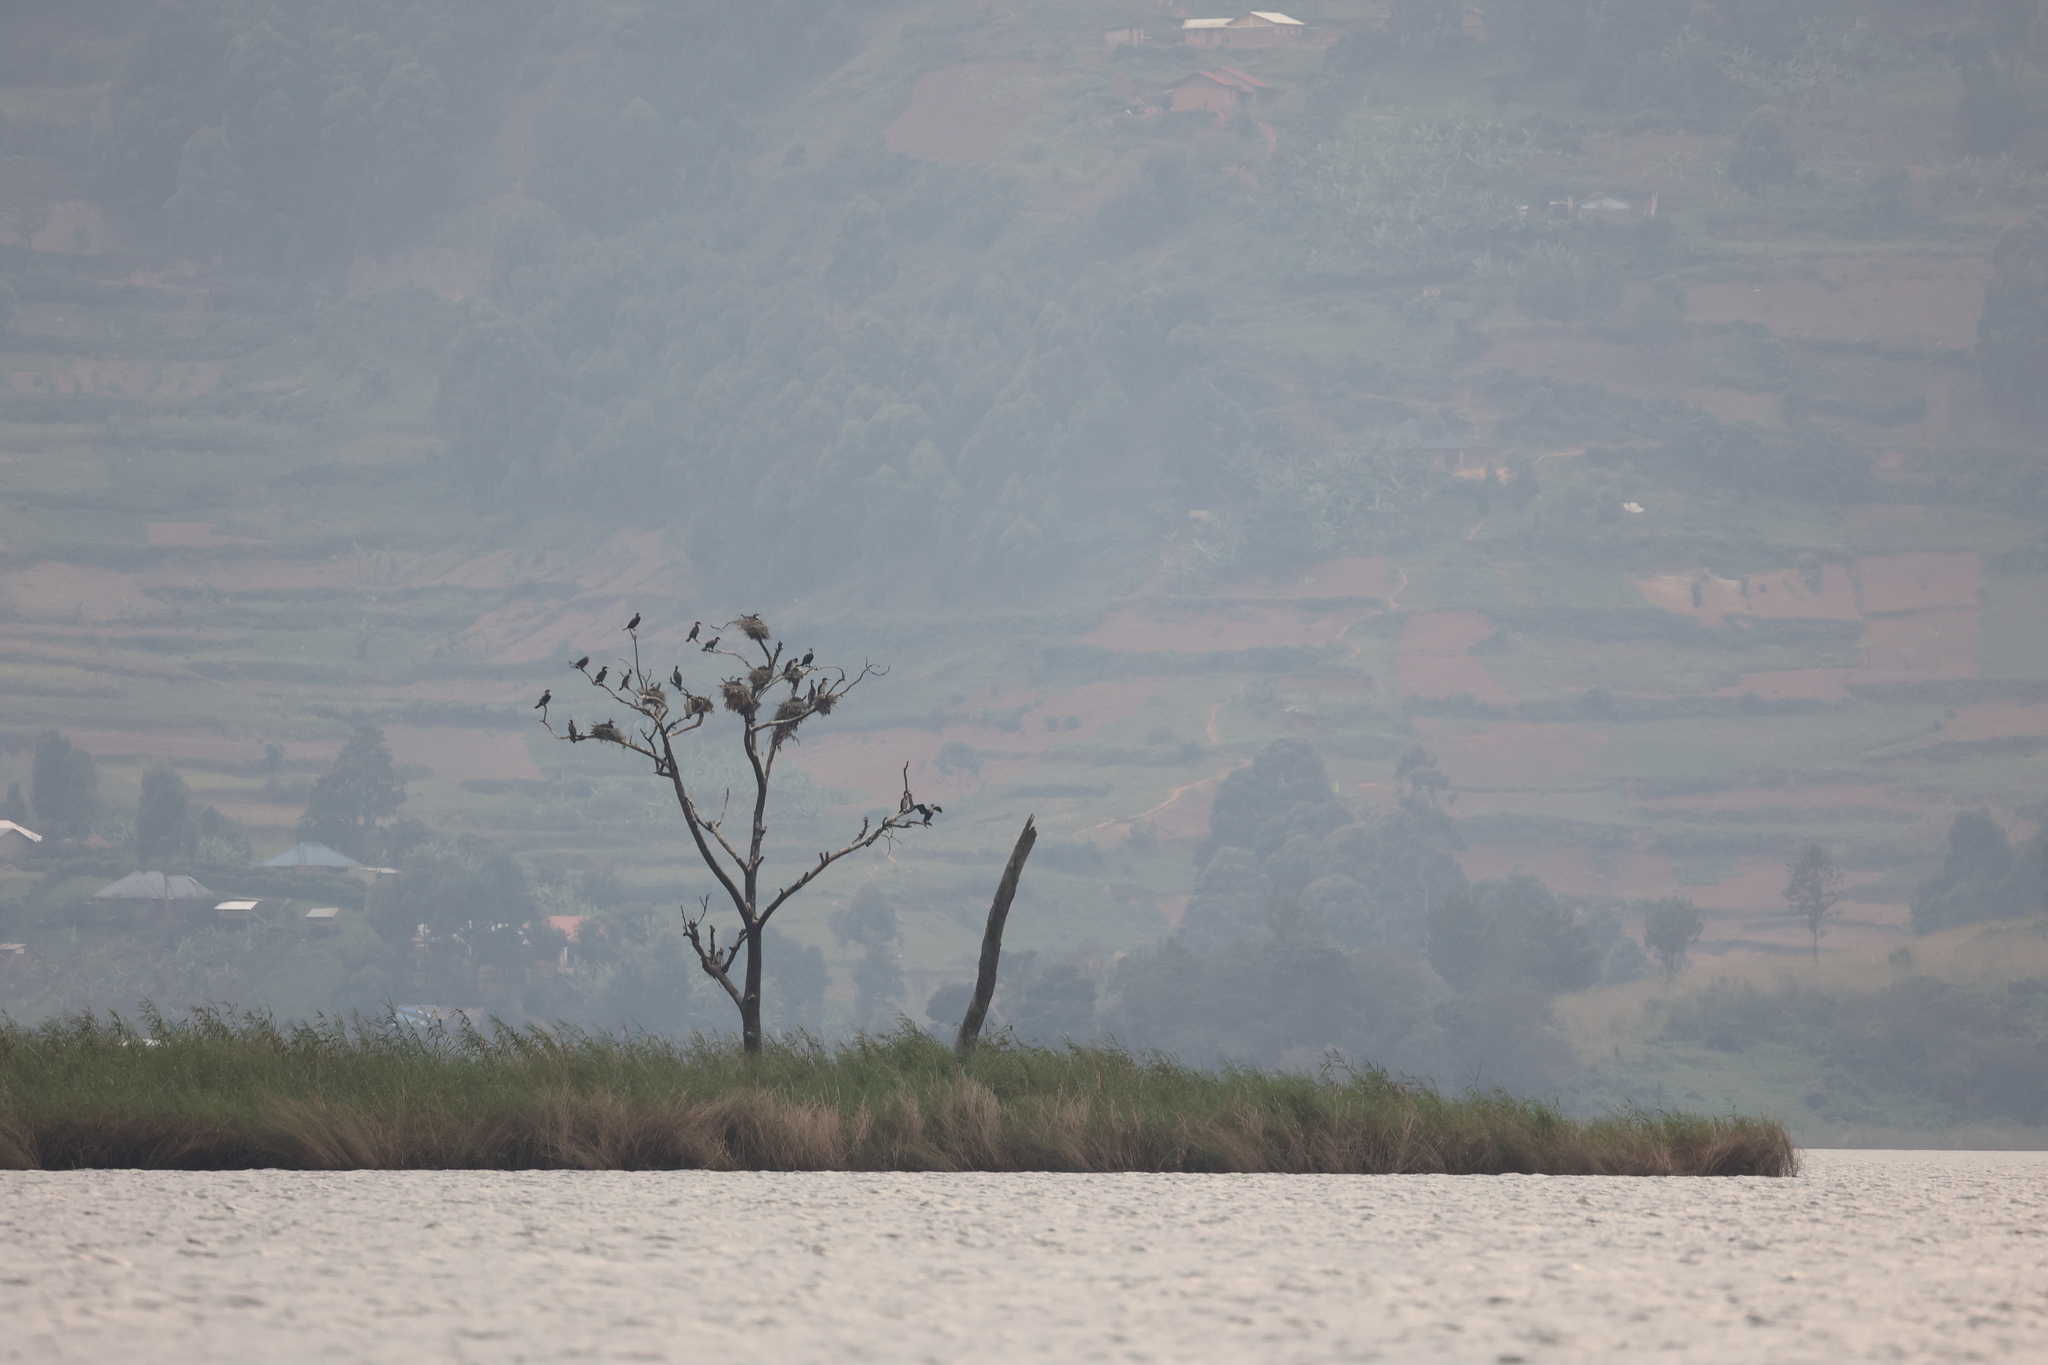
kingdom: Animalia
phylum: Chordata
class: Aves
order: Suliformes
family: Phalacrocoracidae
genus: Phalacrocorax
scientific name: Phalacrocorax carbo
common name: Great cormorant
